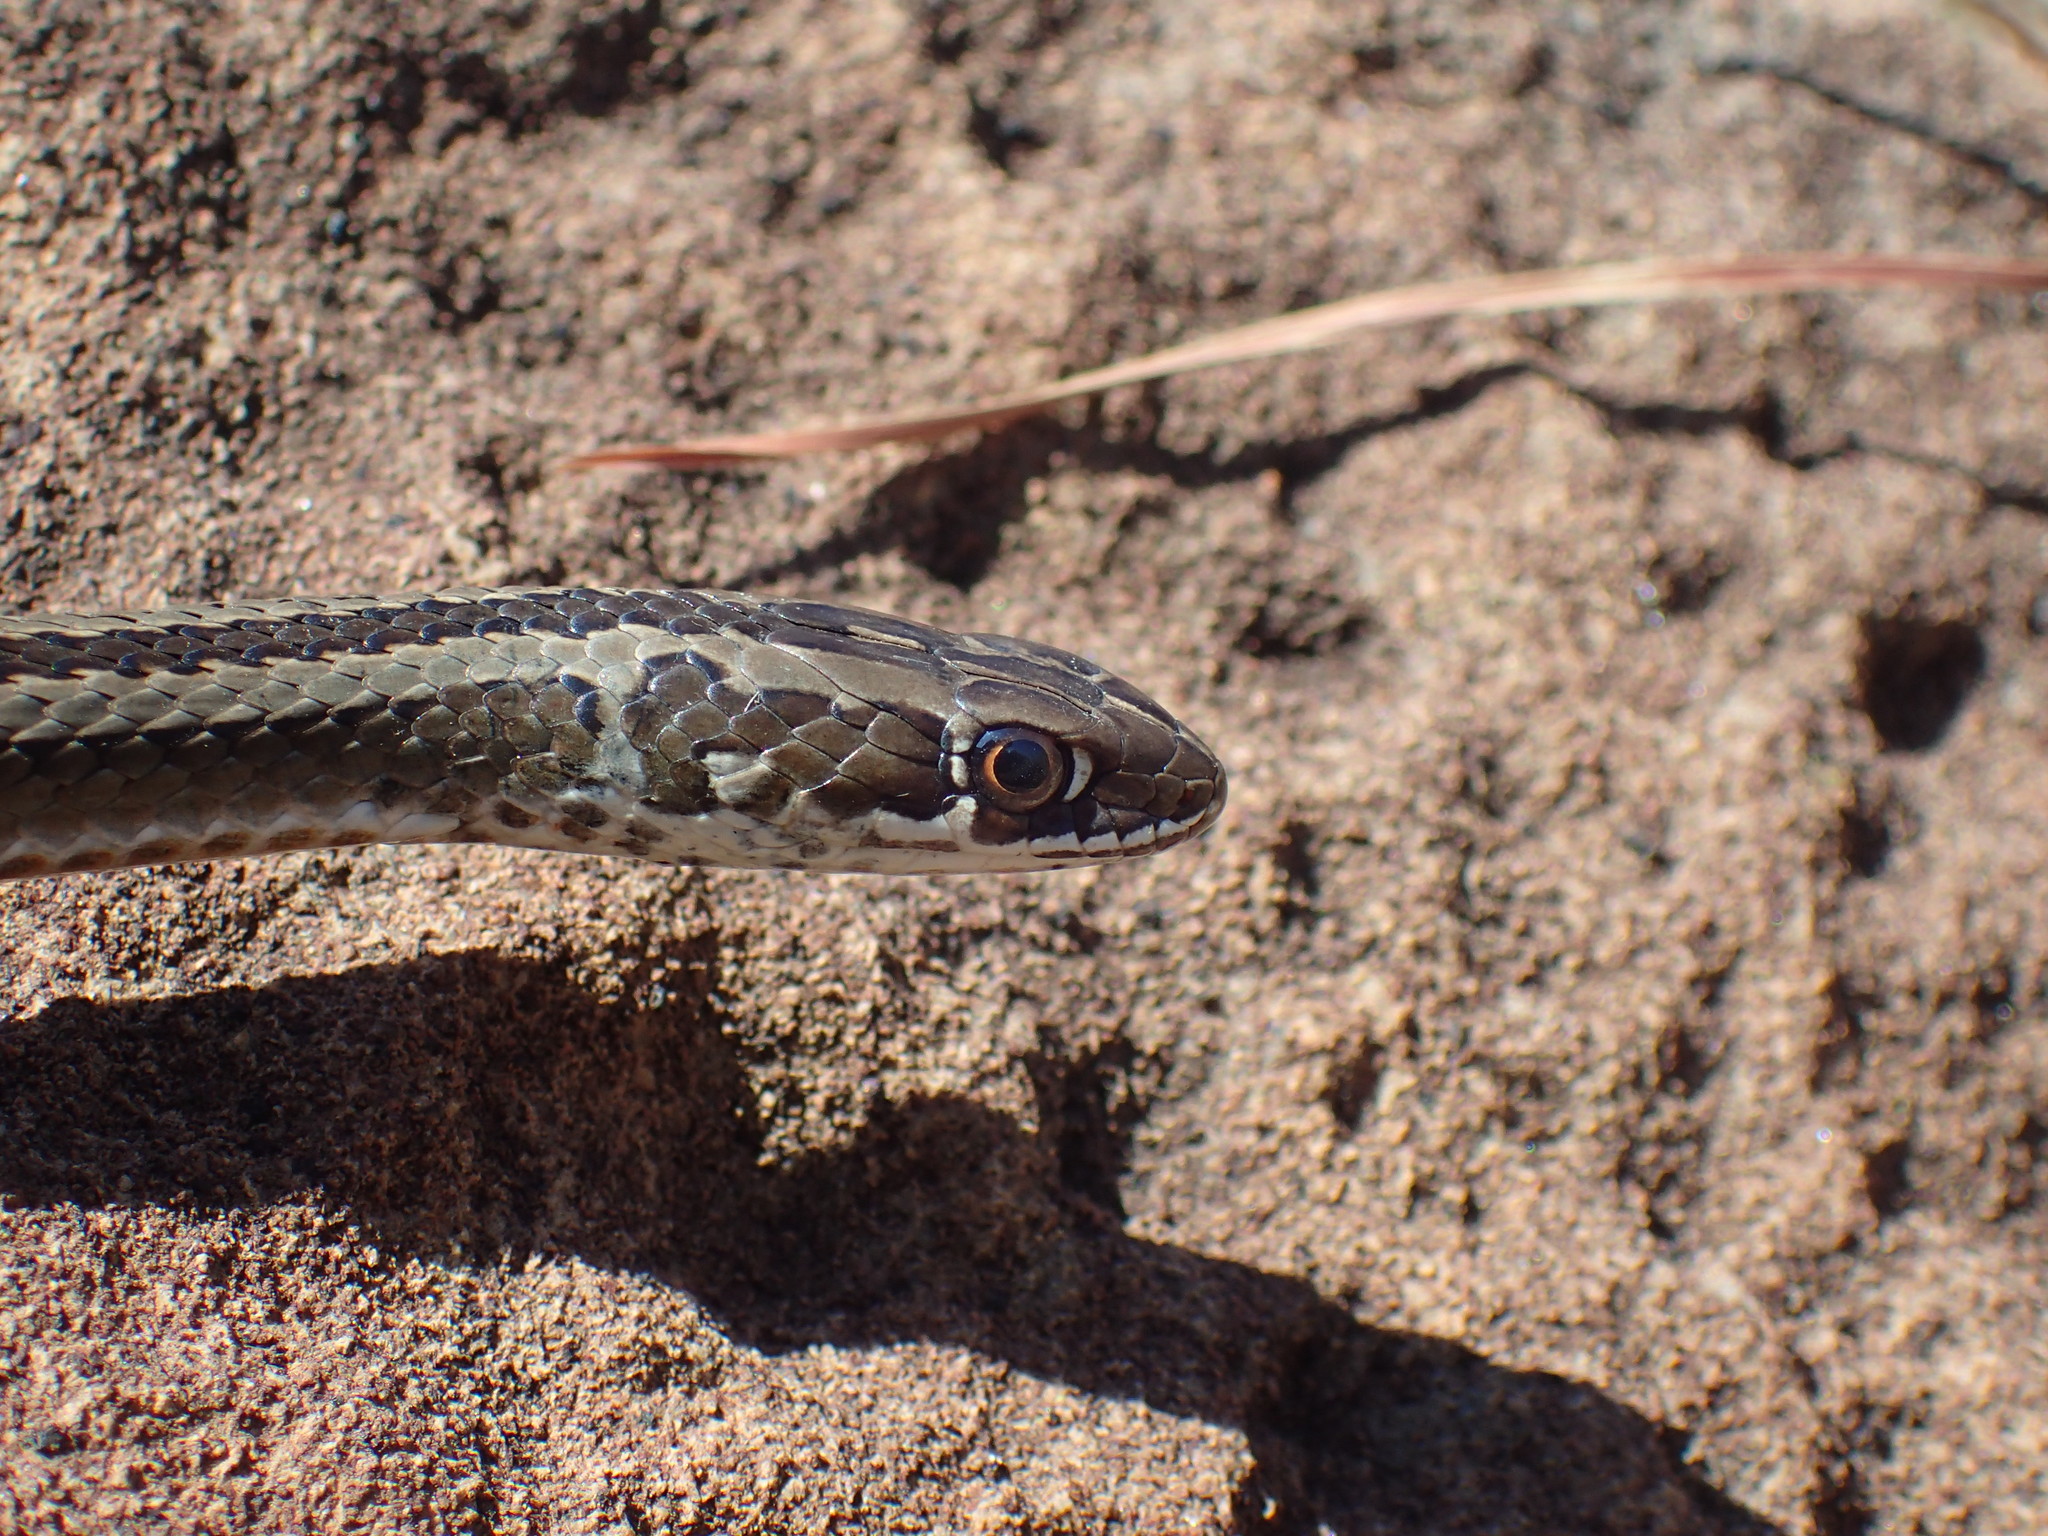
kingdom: Animalia
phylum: Chordata
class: Squamata
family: Psammophiidae
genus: Psammophis
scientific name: Psammophis crucifer
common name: Cross-marked grass snake
